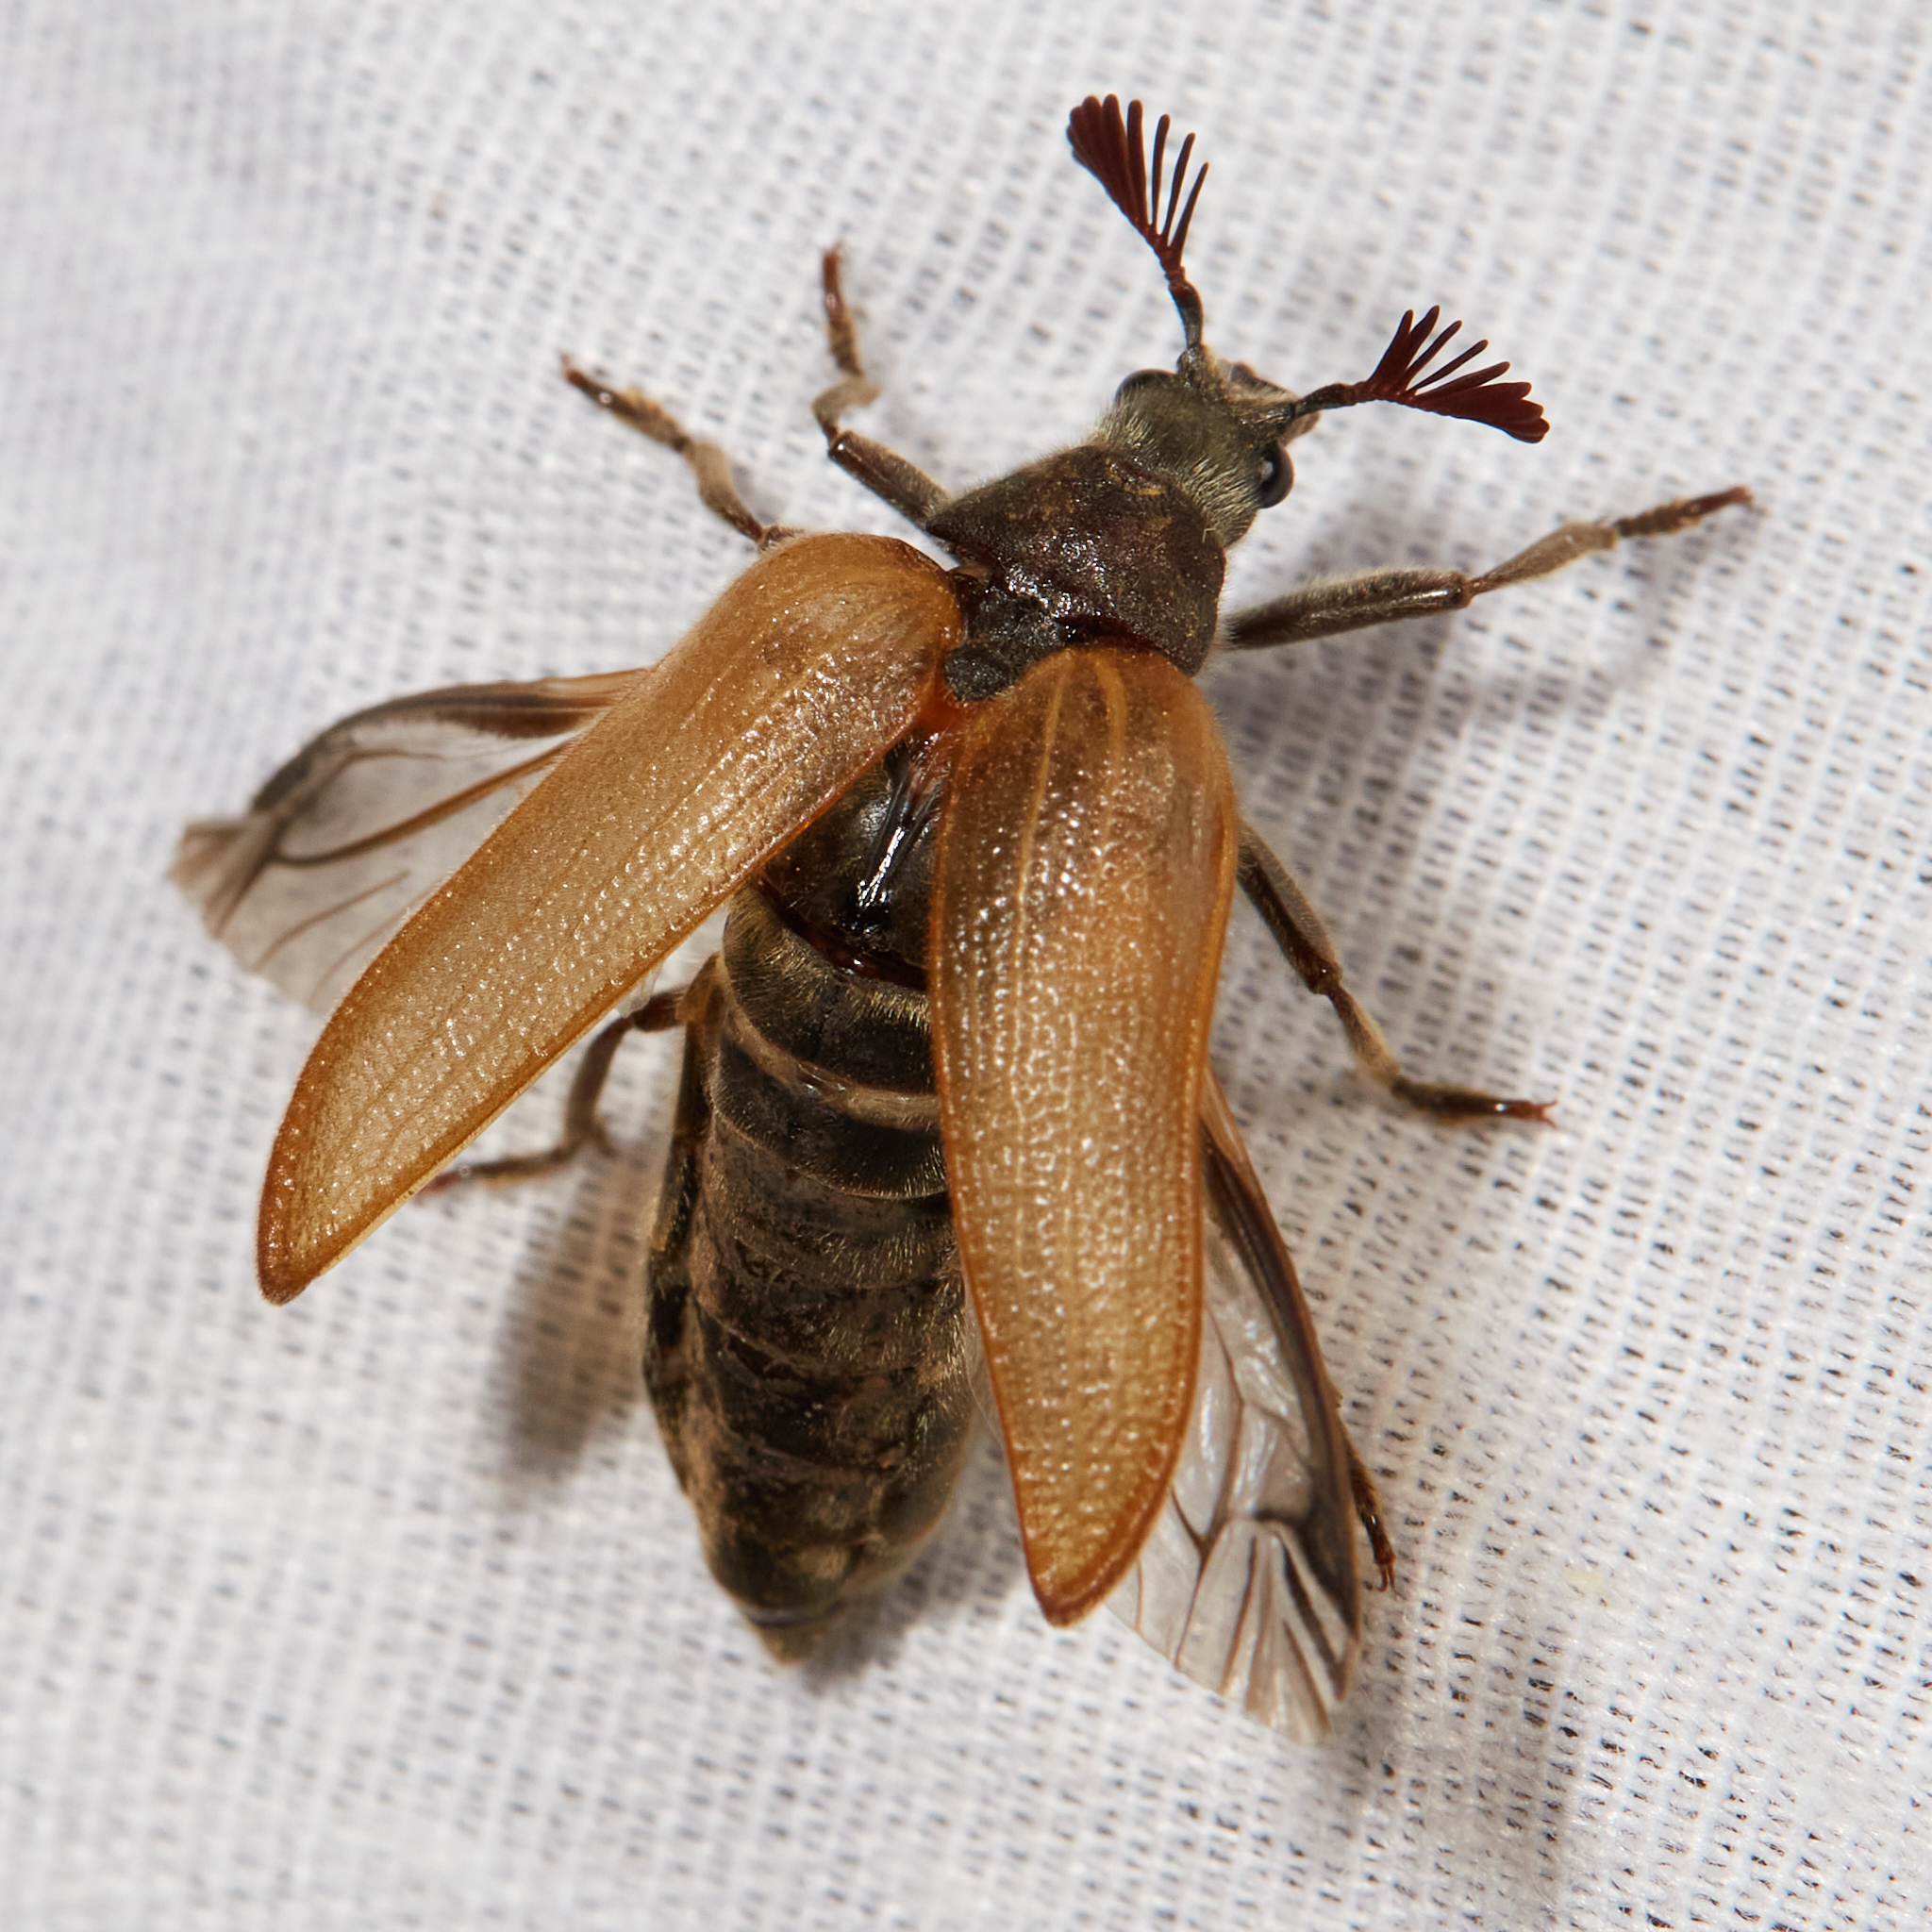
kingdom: Animalia
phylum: Arthropoda
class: Insecta
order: Coleoptera
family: Rhipiceridae
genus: Sandalus
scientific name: Sandalus californicus
